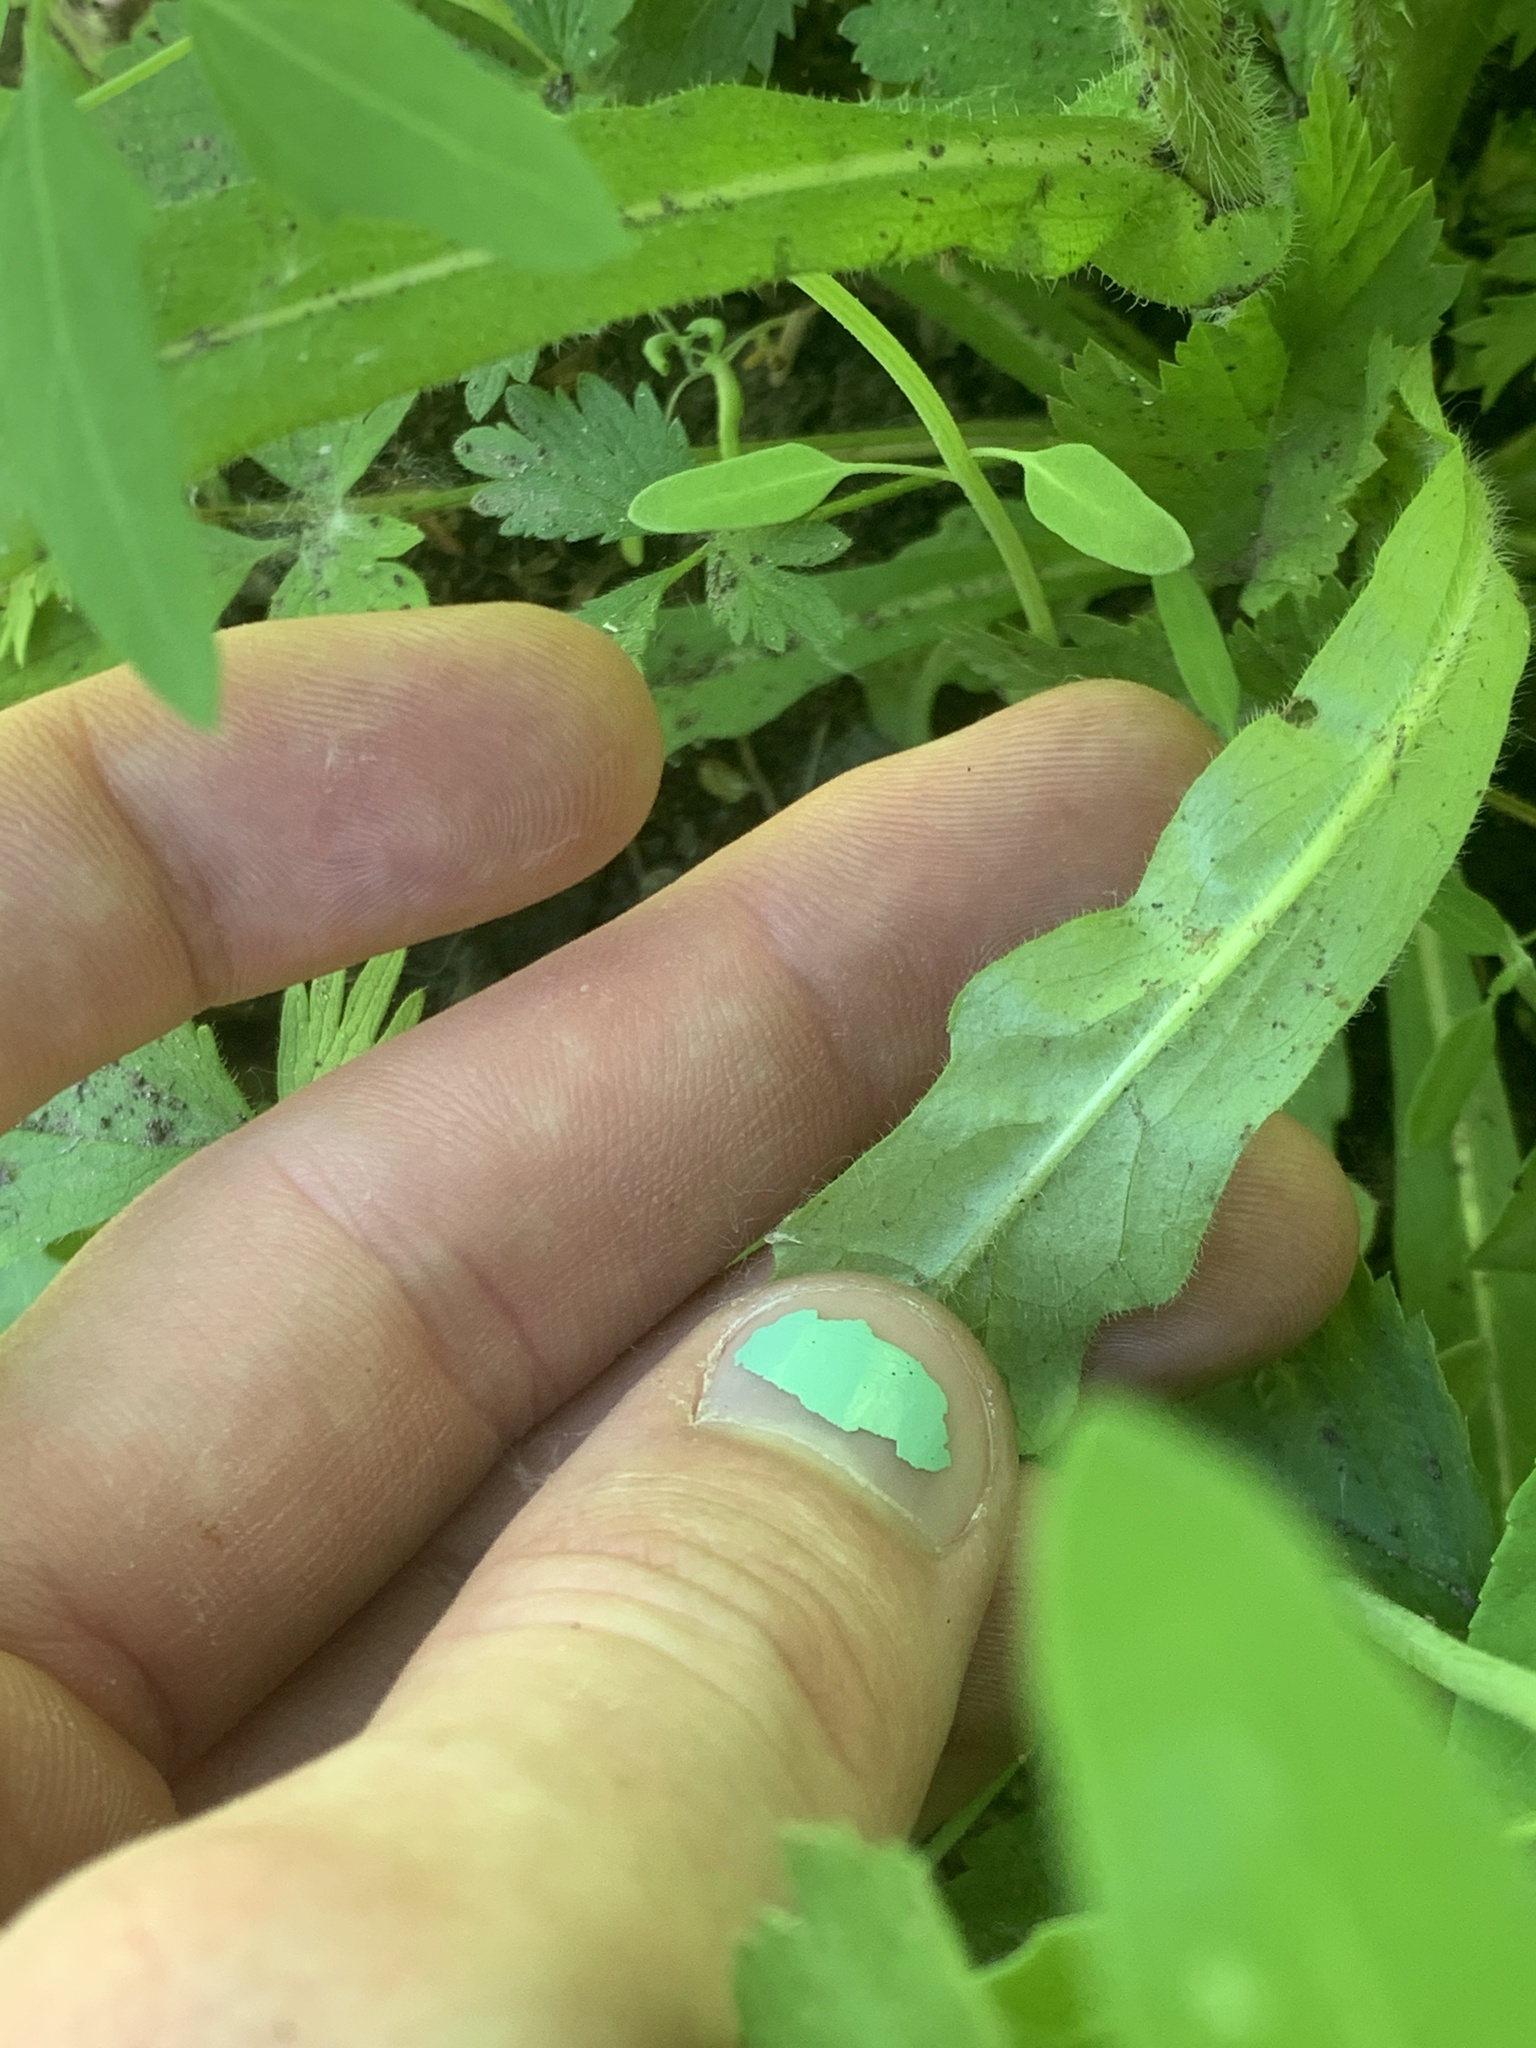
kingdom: Plantae
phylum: Tracheophyta
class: Magnoliopsida
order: Asterales
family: Asteraceae
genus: Erigeron
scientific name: Erigeron philadelphicus
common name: Robin's-plantain
